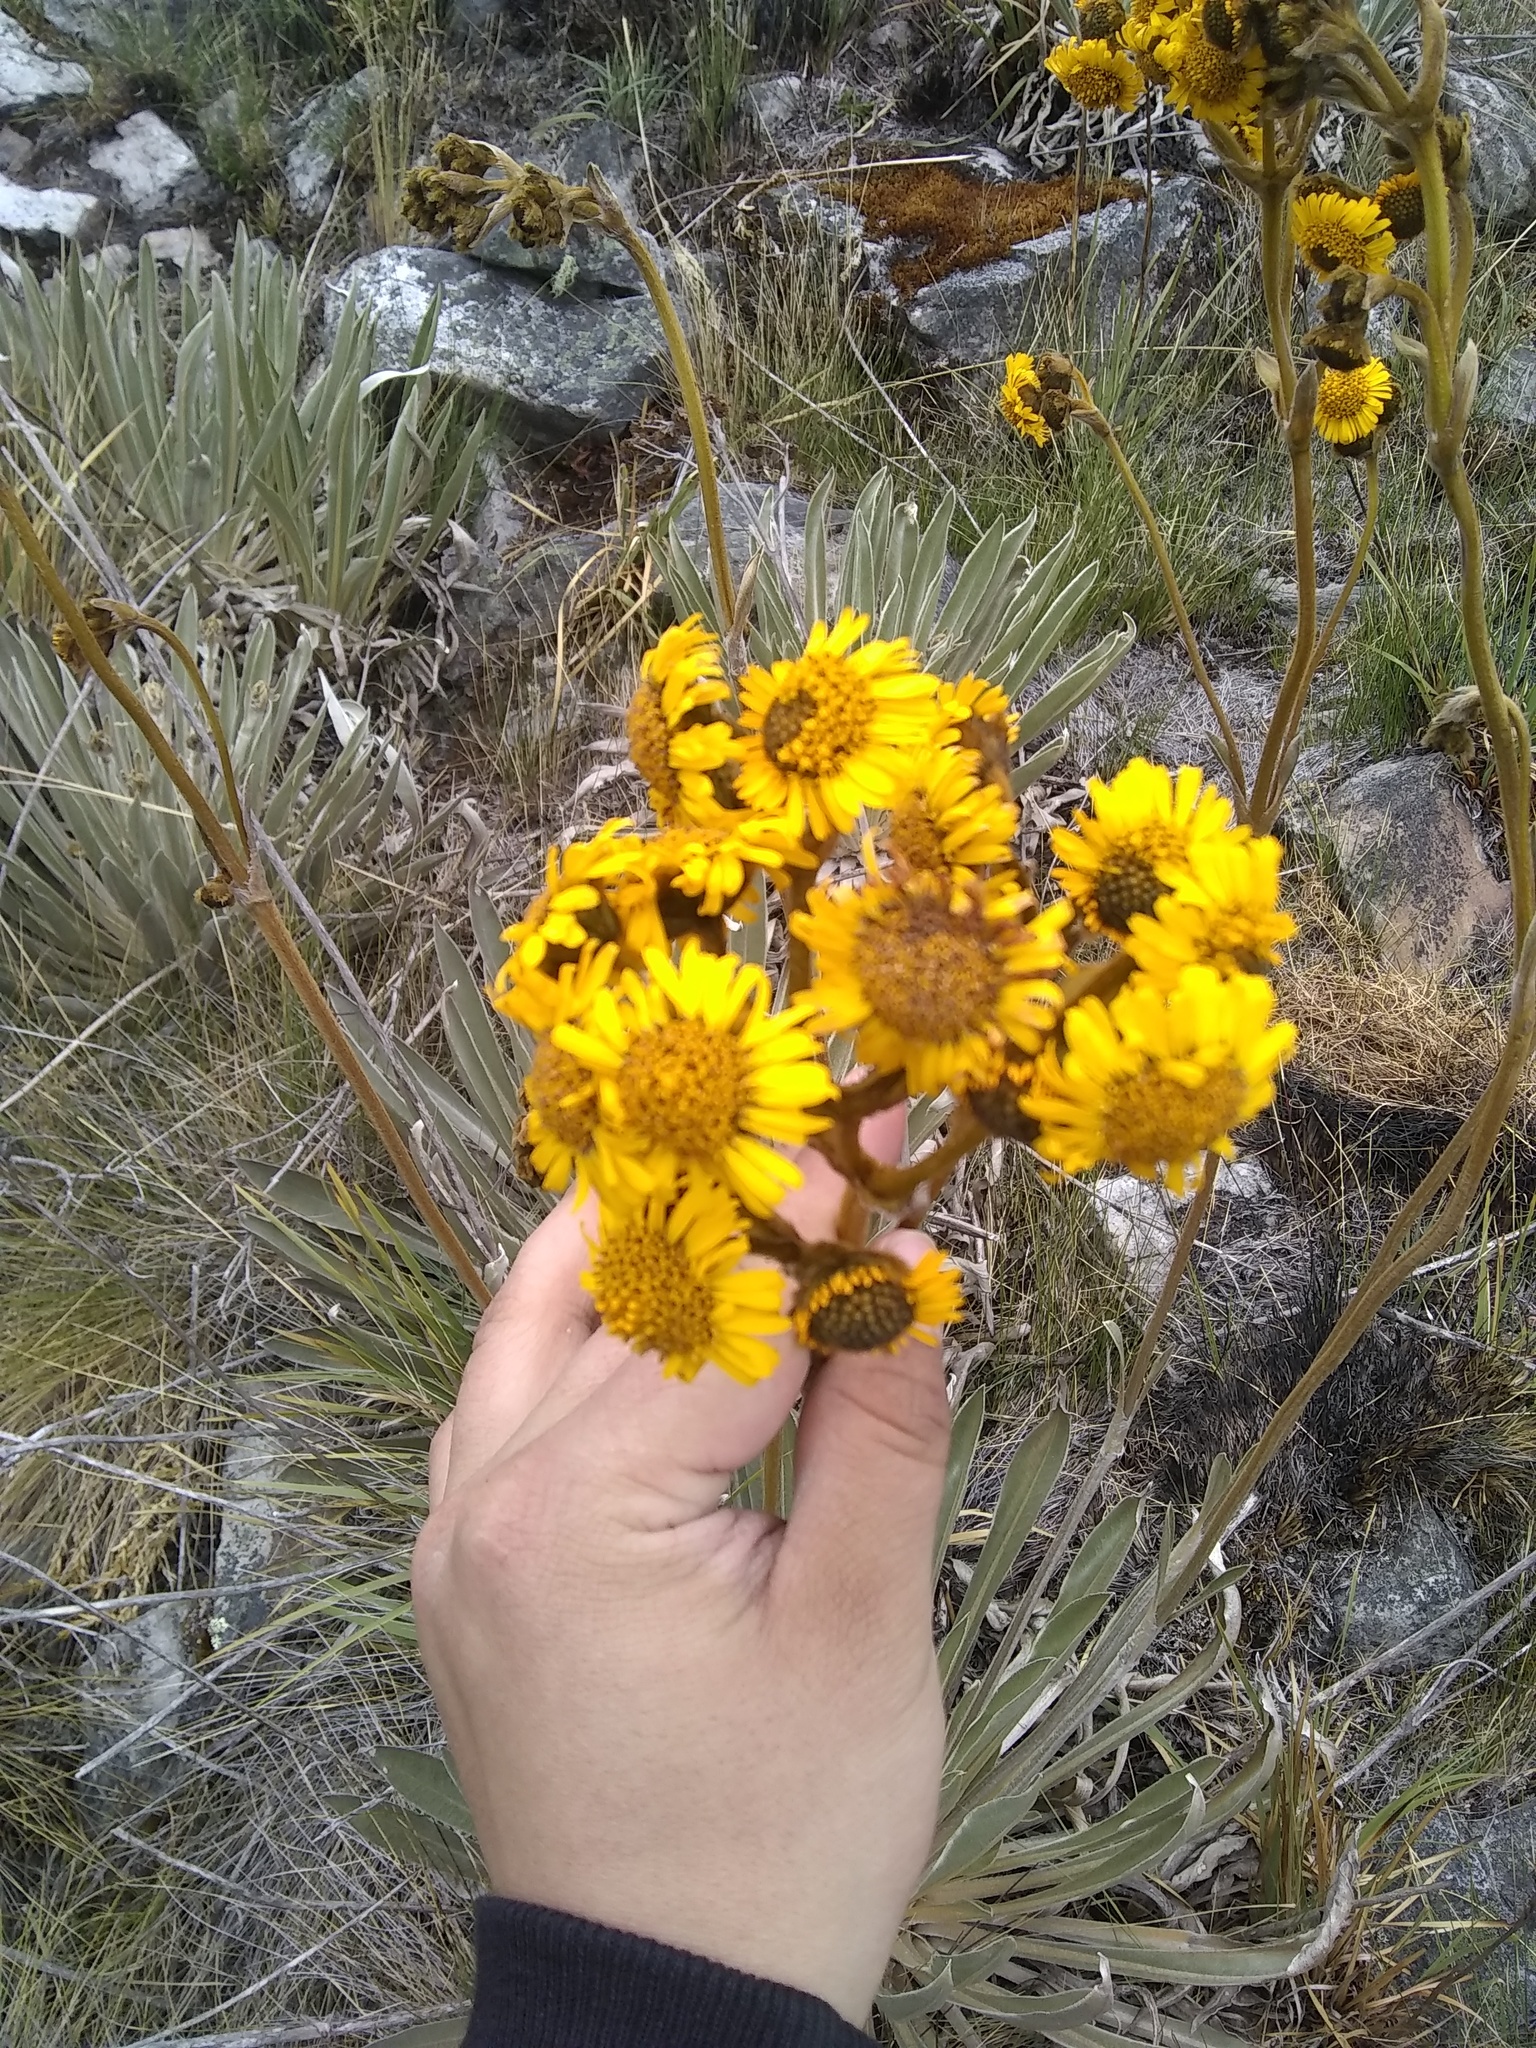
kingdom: Plantae
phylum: Tracheophyta
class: Magnoliopsida
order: Asterales
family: Asteraceae
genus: Espeletia
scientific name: Espeletia boyacensis
